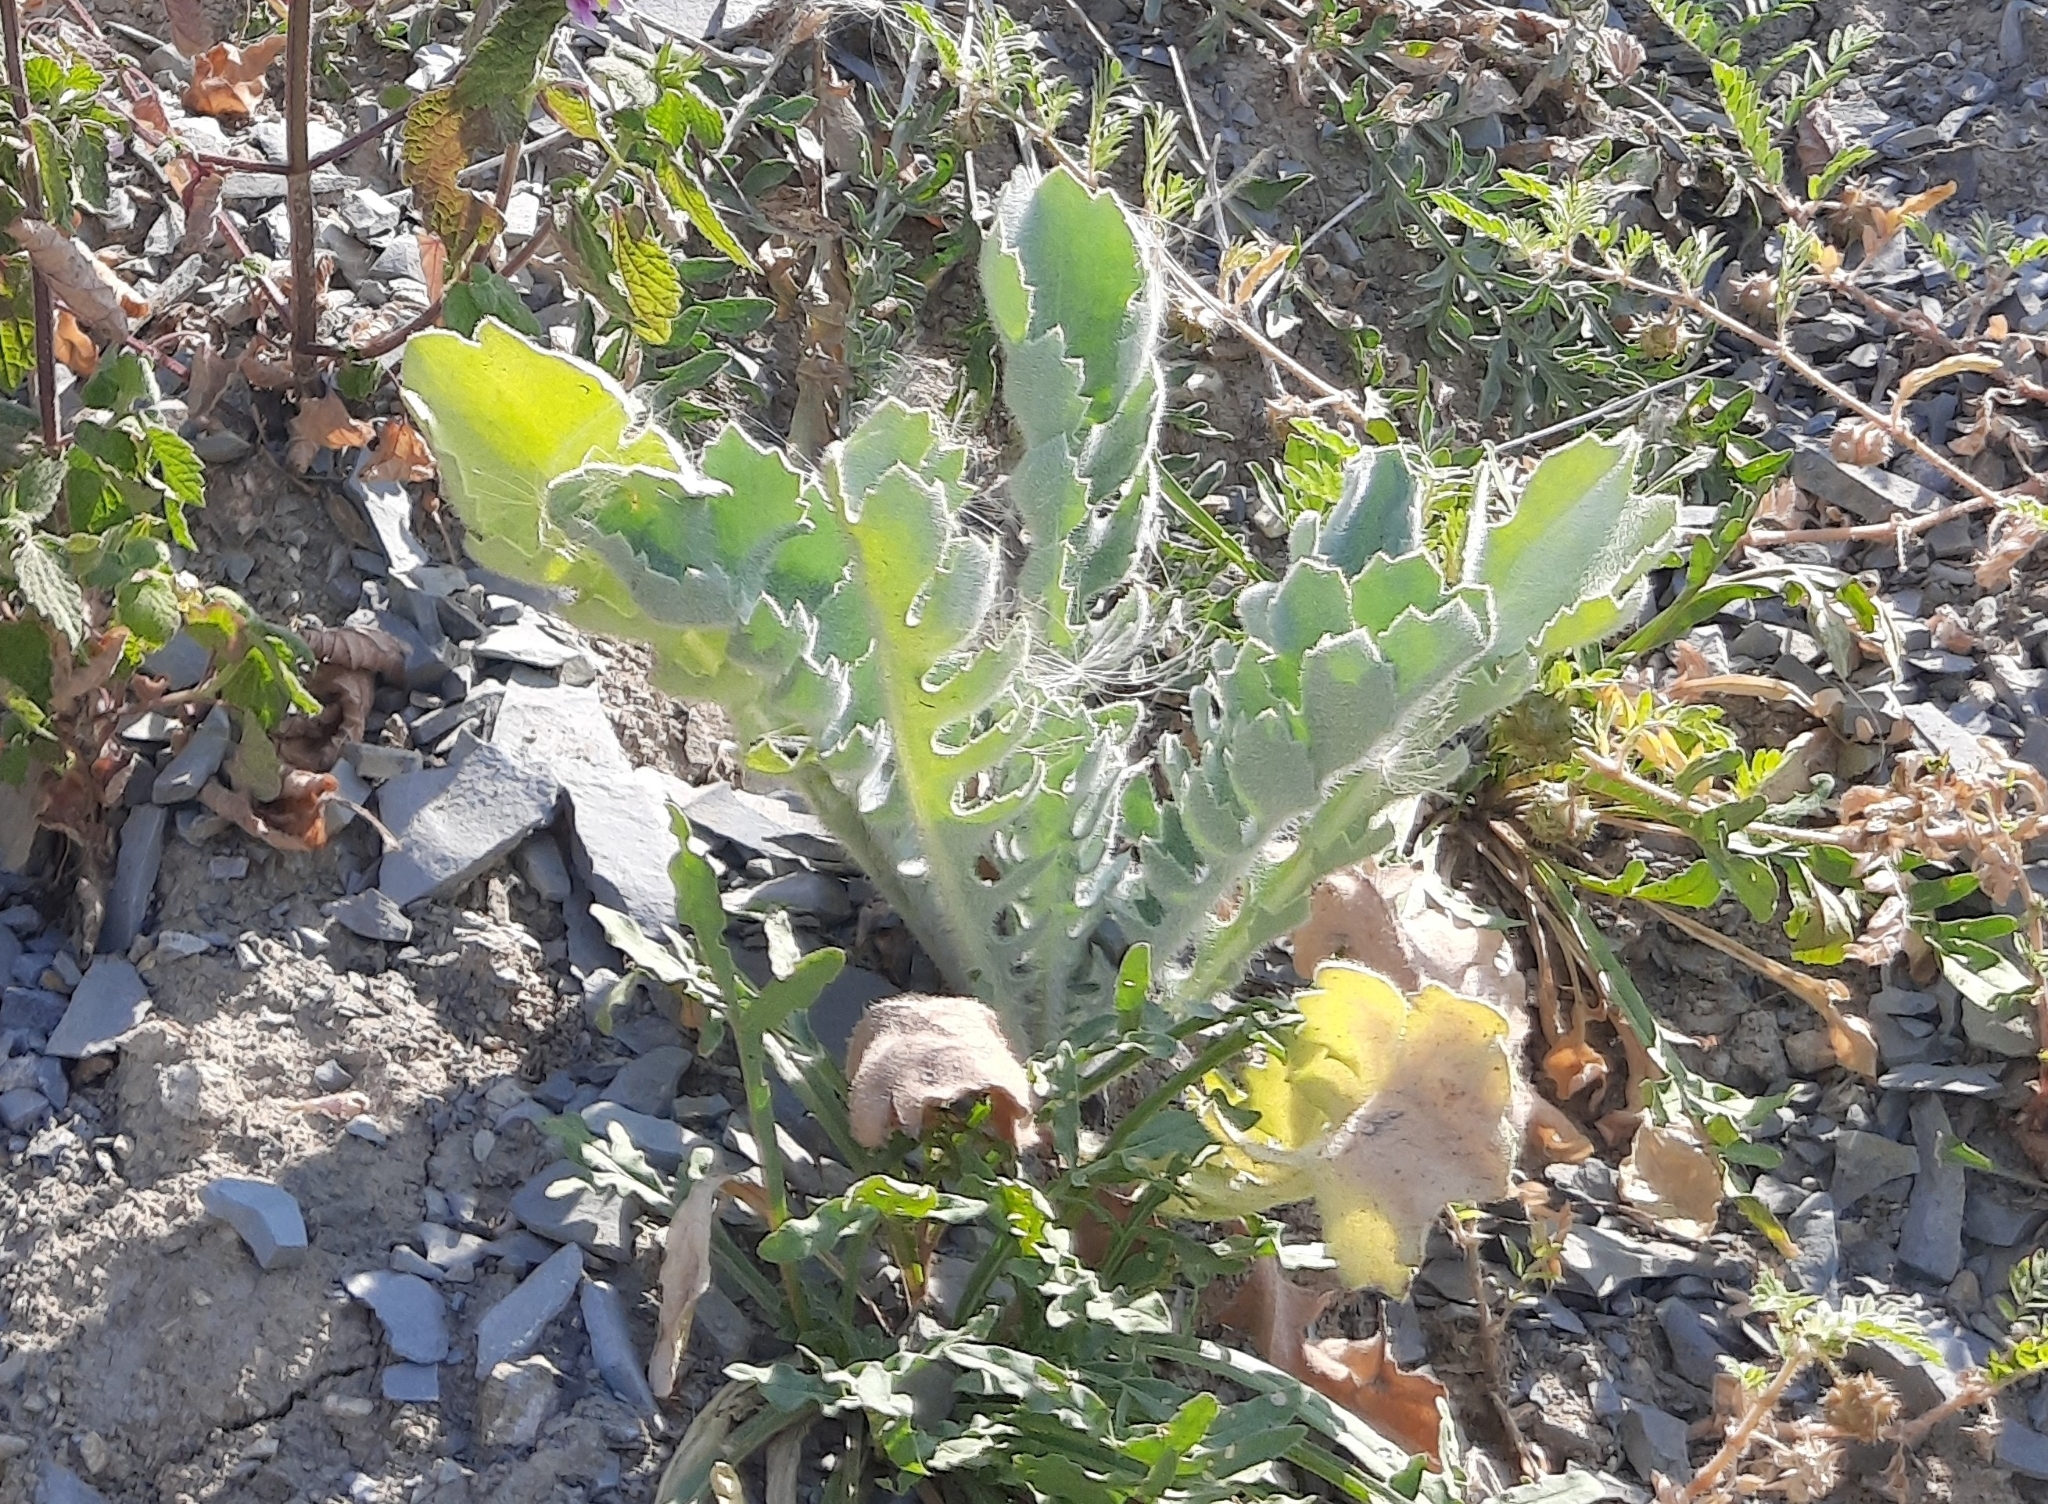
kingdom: Plantae
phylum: Tracheophyta
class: Magnoliopsida
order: Ranunculales
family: Papaveraceae
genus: Glaucium
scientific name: Glaucium flavum
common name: Yellow horned-poppy
